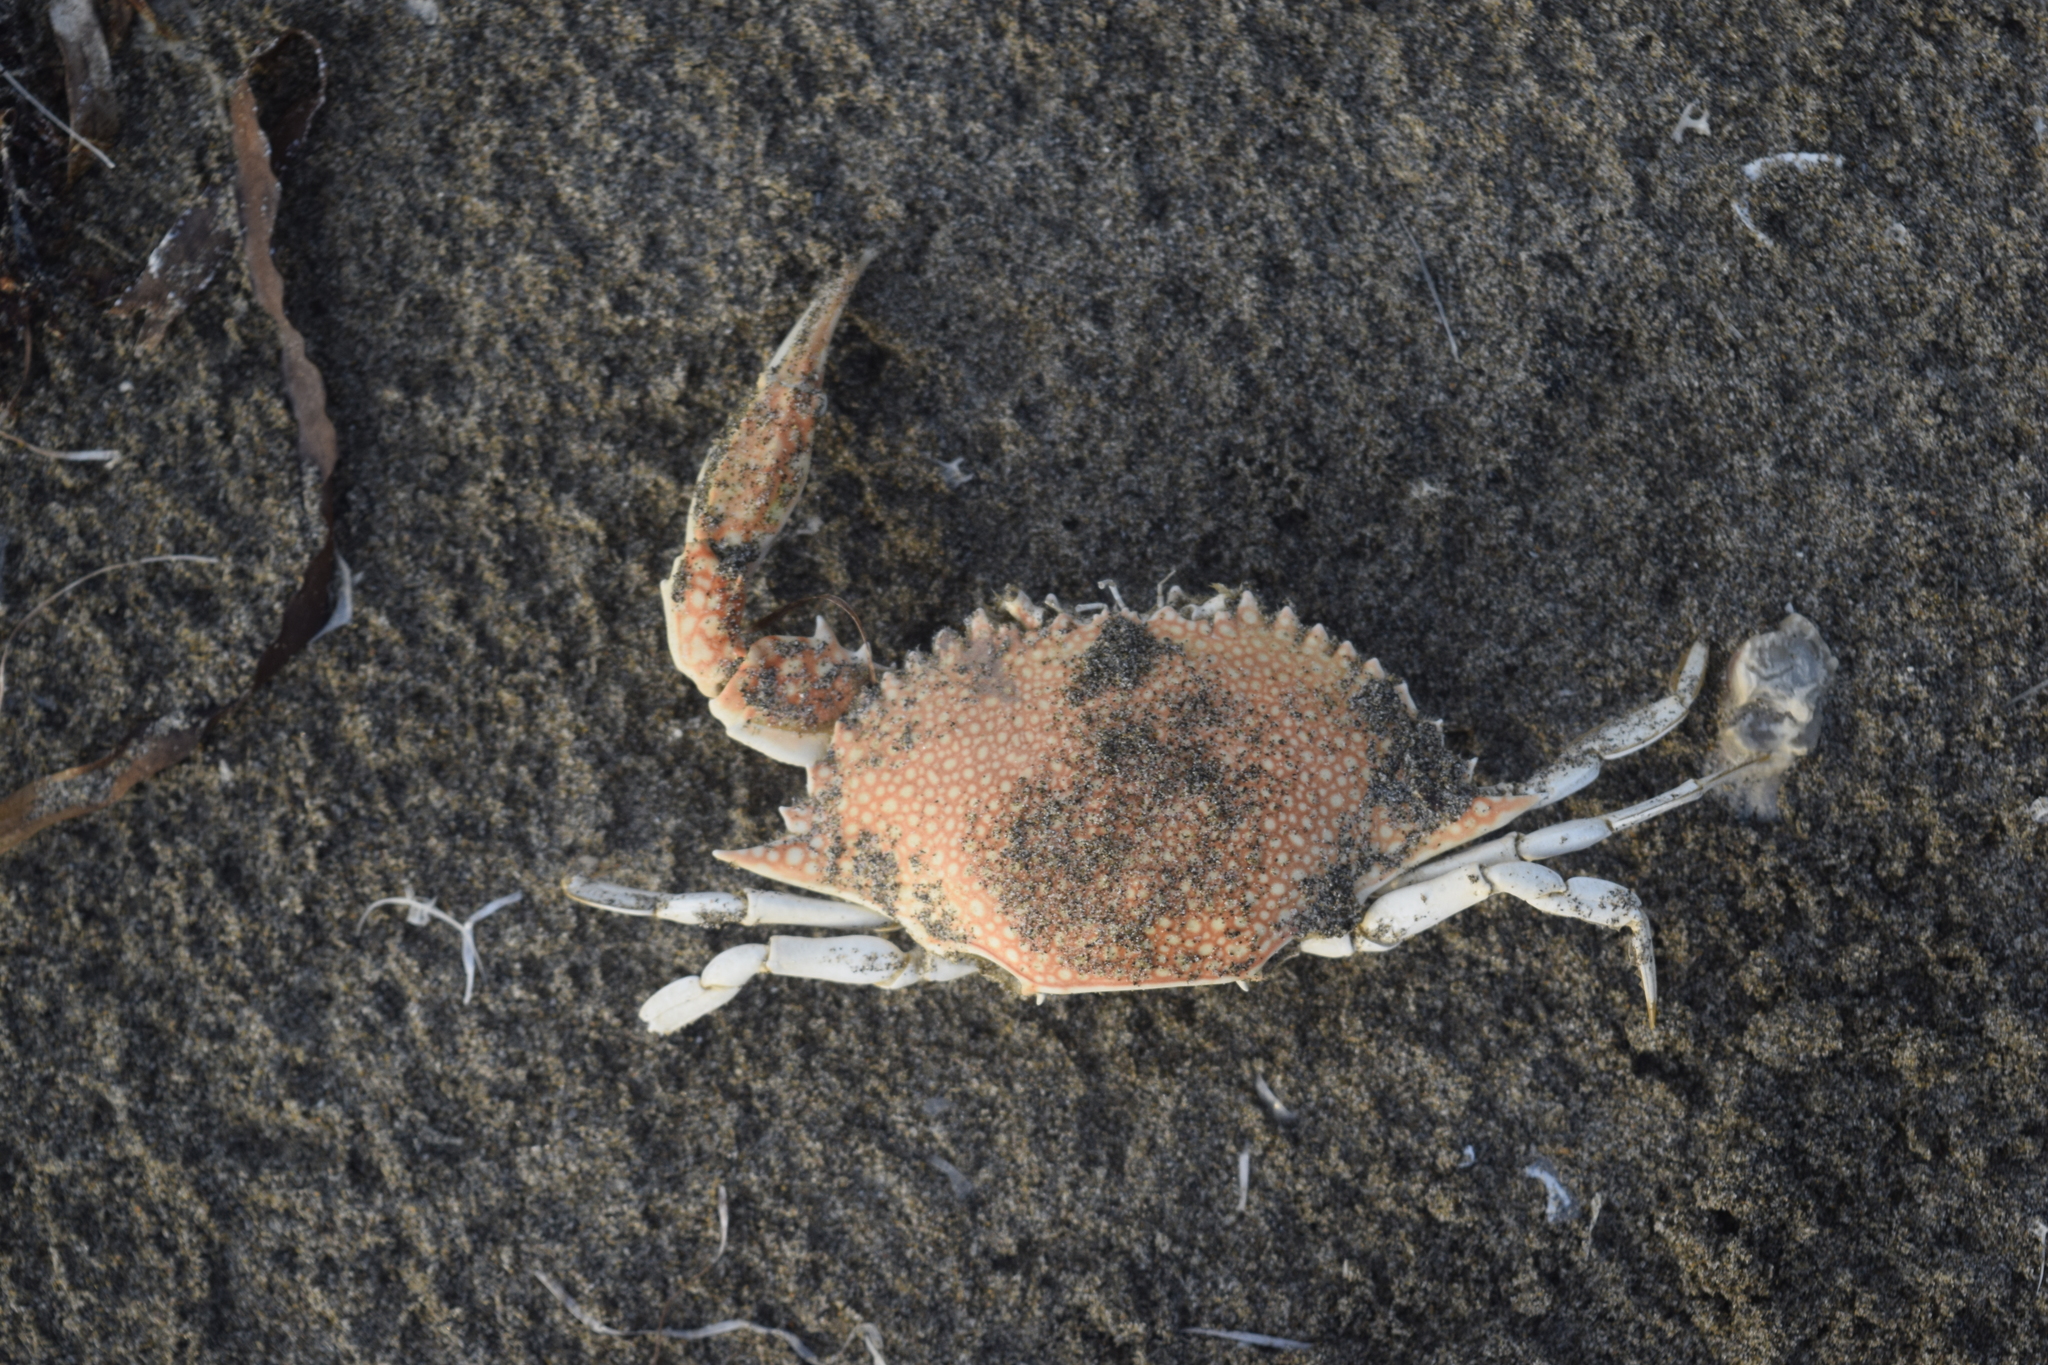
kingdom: Animalia
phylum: Arthropoda
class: Malacostraca
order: Decapoda
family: Portunidae
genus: Arenaeus
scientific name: Arenaeus cribrarius
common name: Speckled crab
